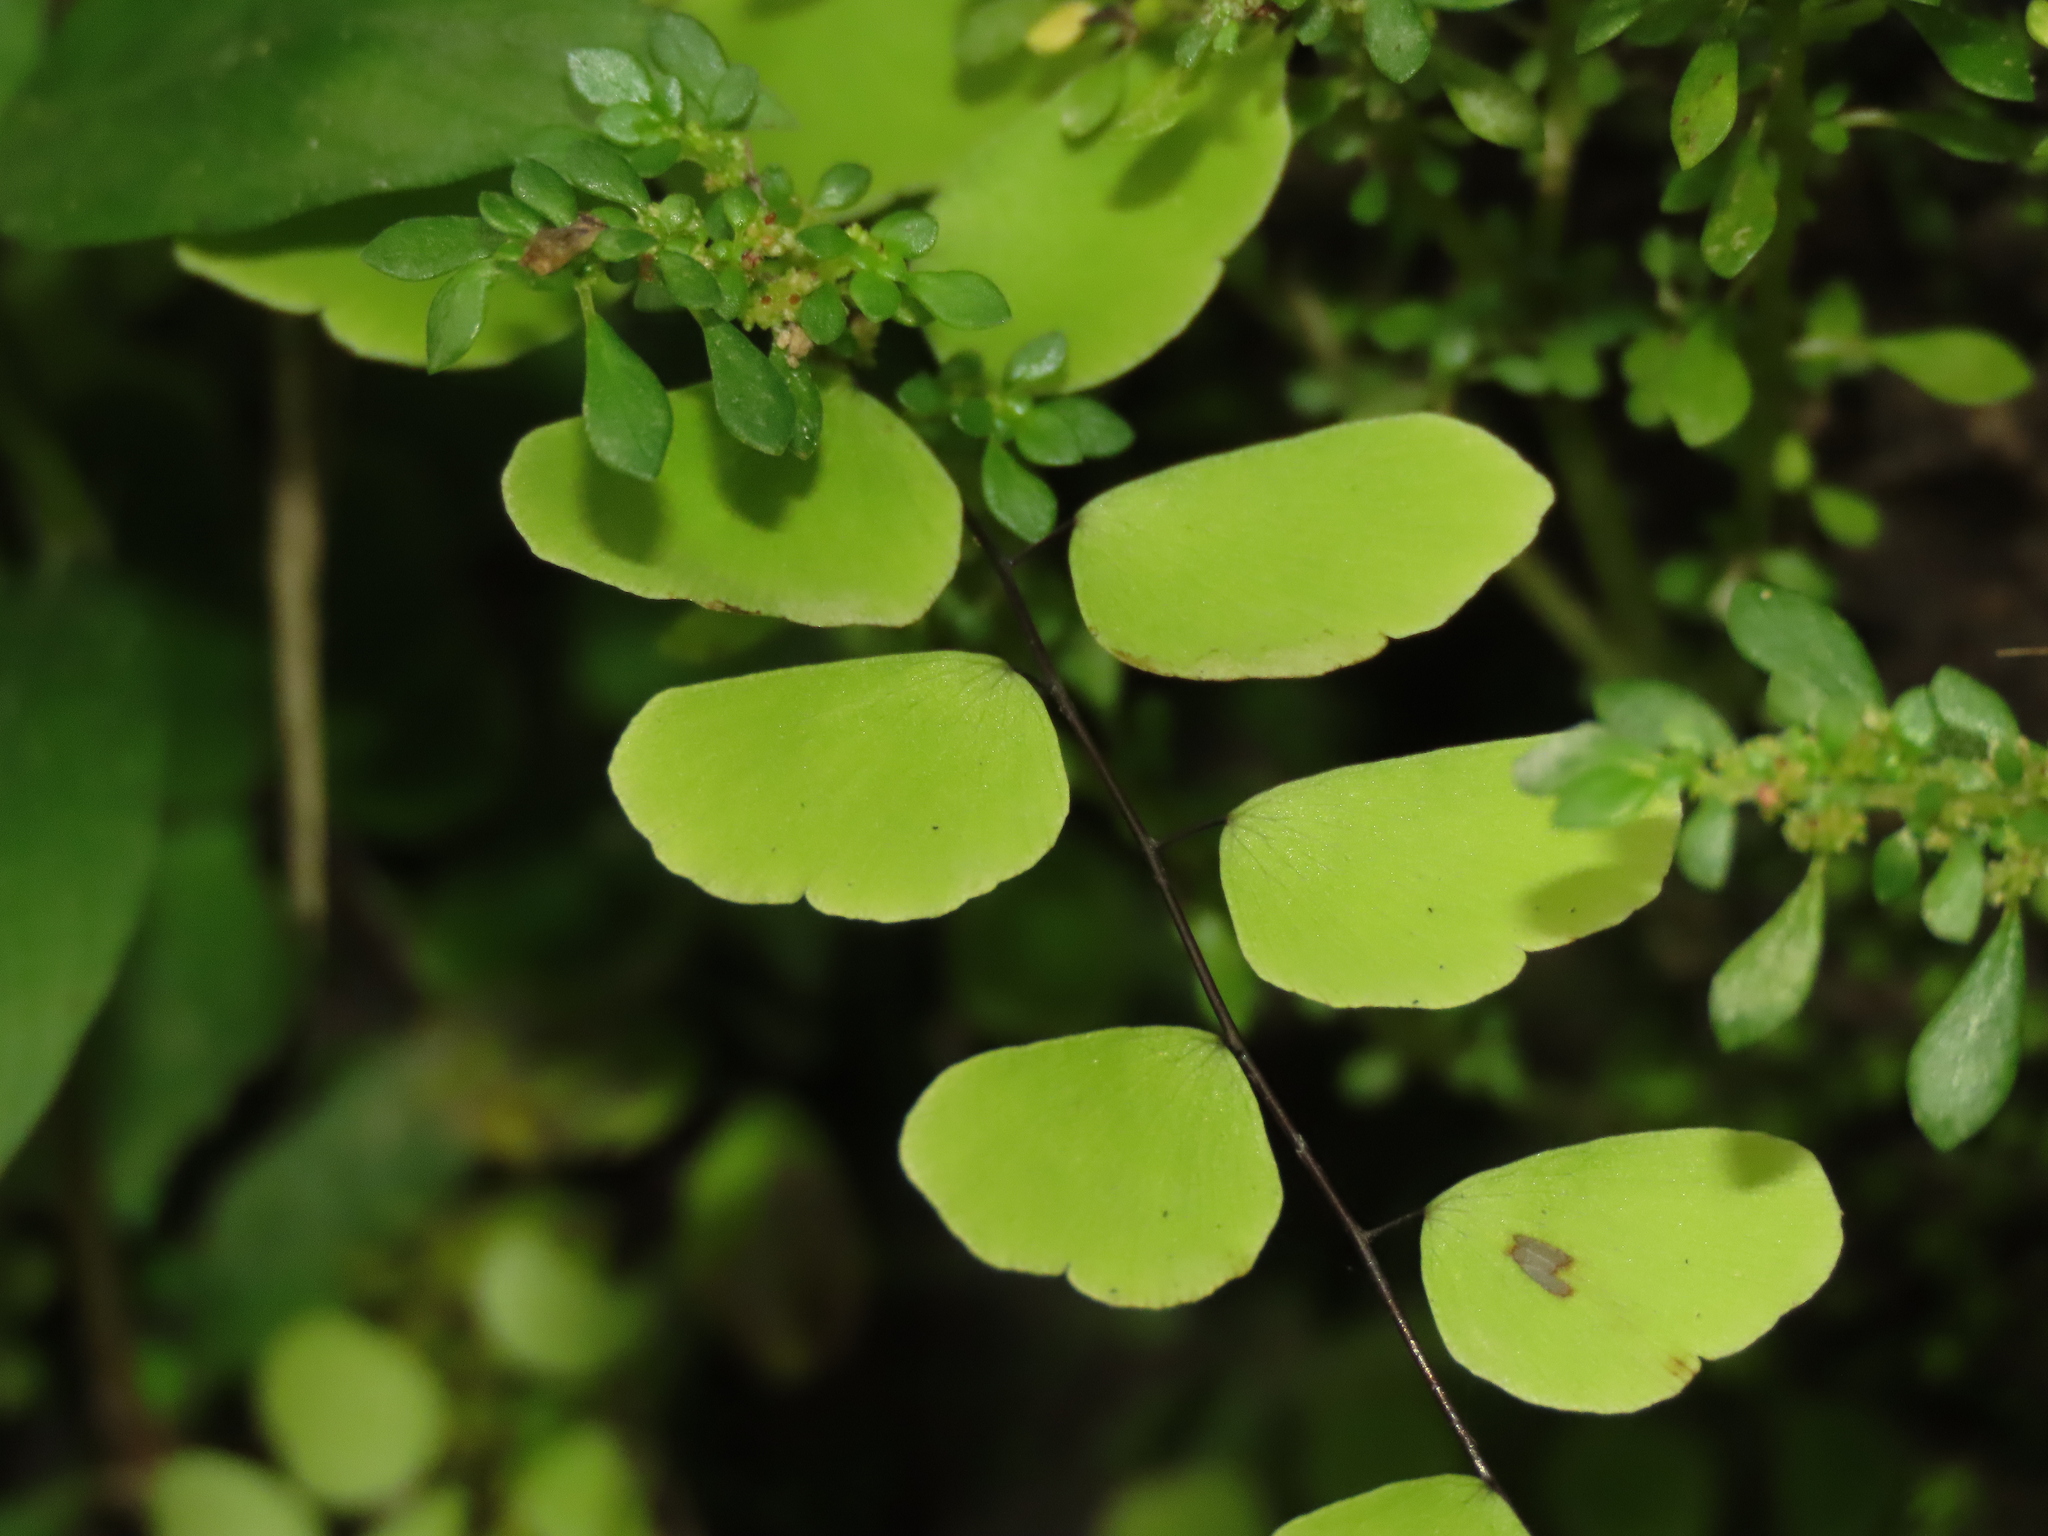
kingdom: Plantae
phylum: Tracheophyta
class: Polypodiopsida
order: Polypodiales
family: Pteridaceae
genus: Adiantum
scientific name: Adiantum philippense
